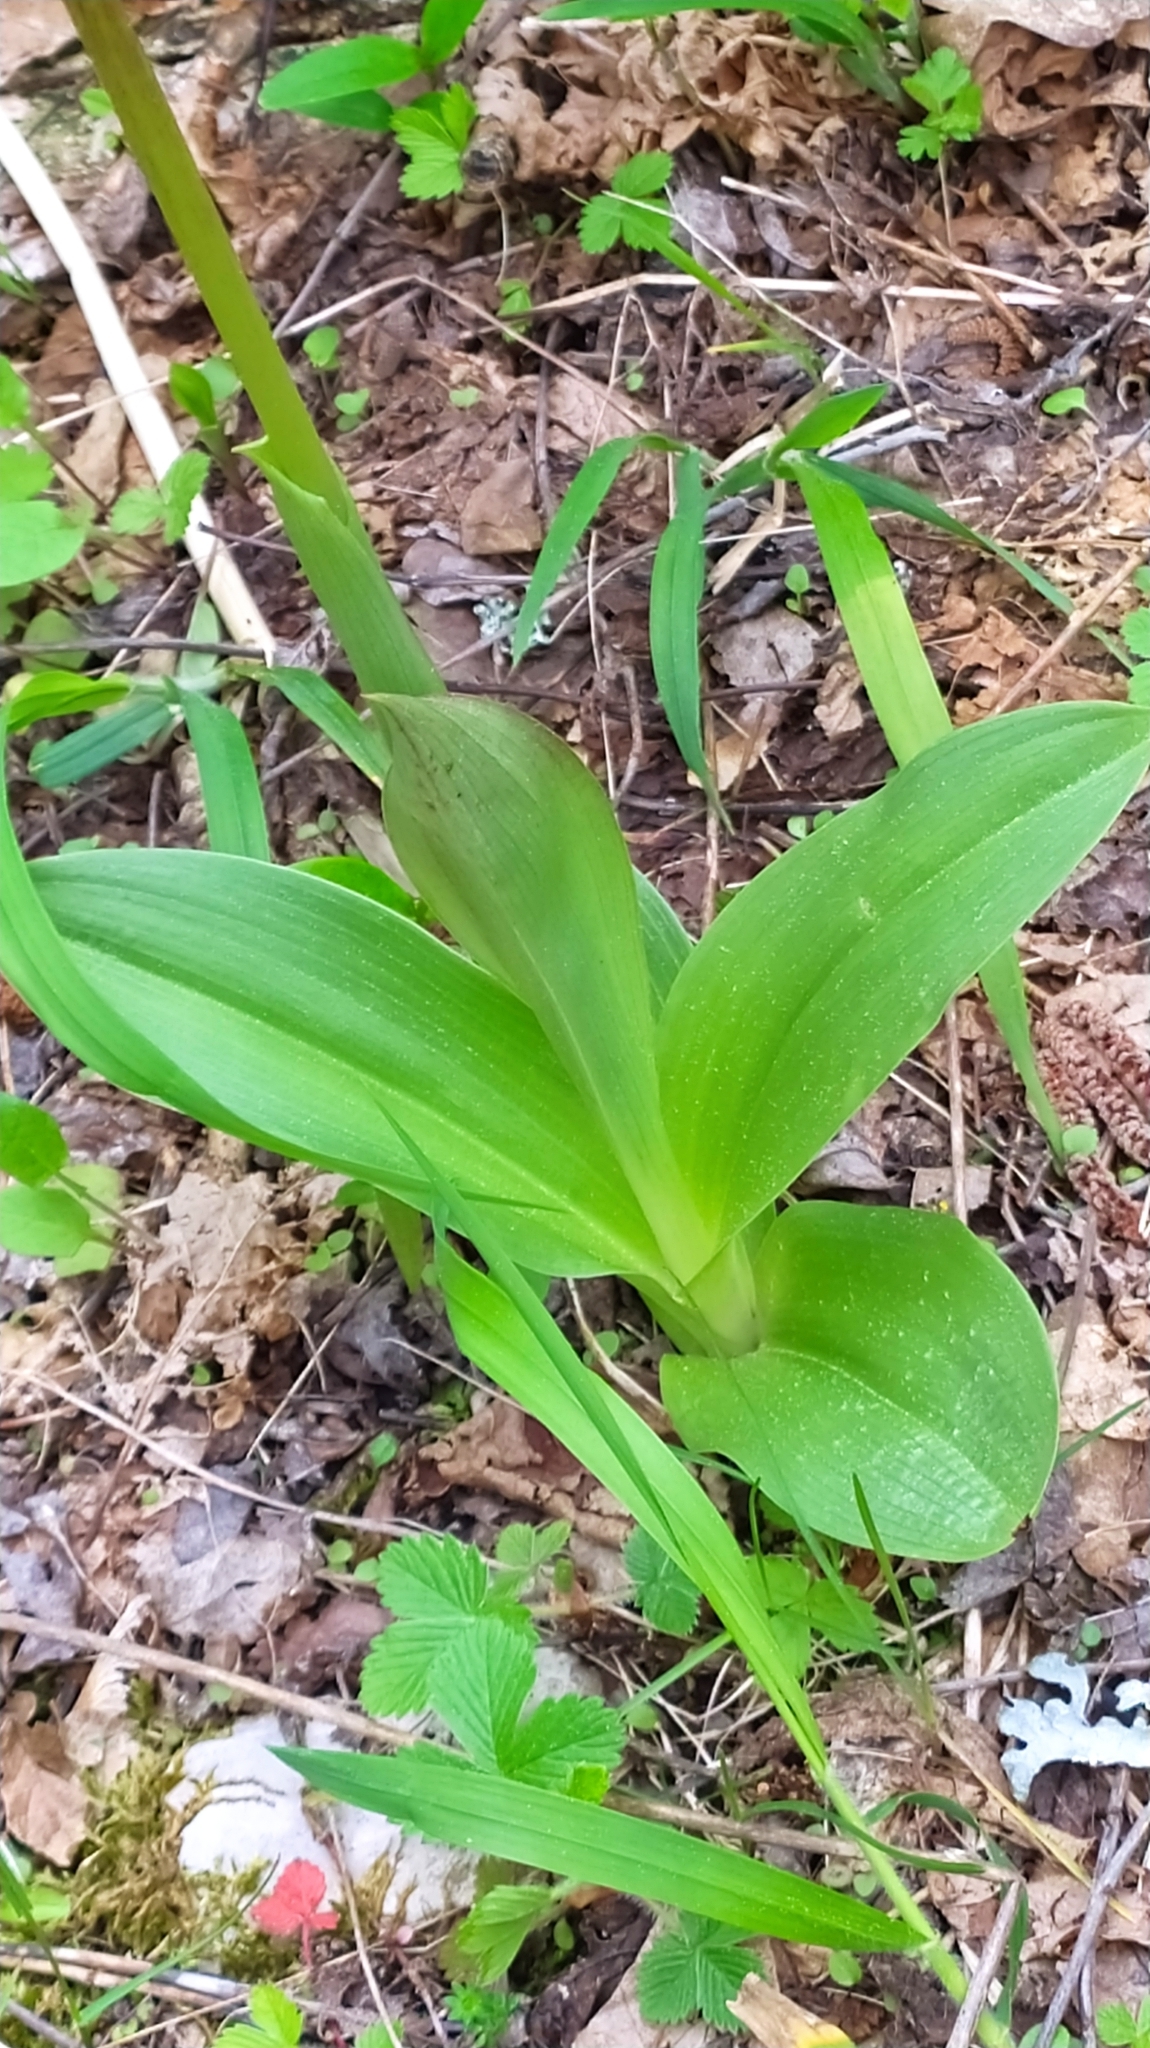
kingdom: Plantae
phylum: Tracheophyta
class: Liliopsida
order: Asparagales
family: Orchidaceae
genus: Orchis
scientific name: Orchis purpurea
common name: Lady orchid
